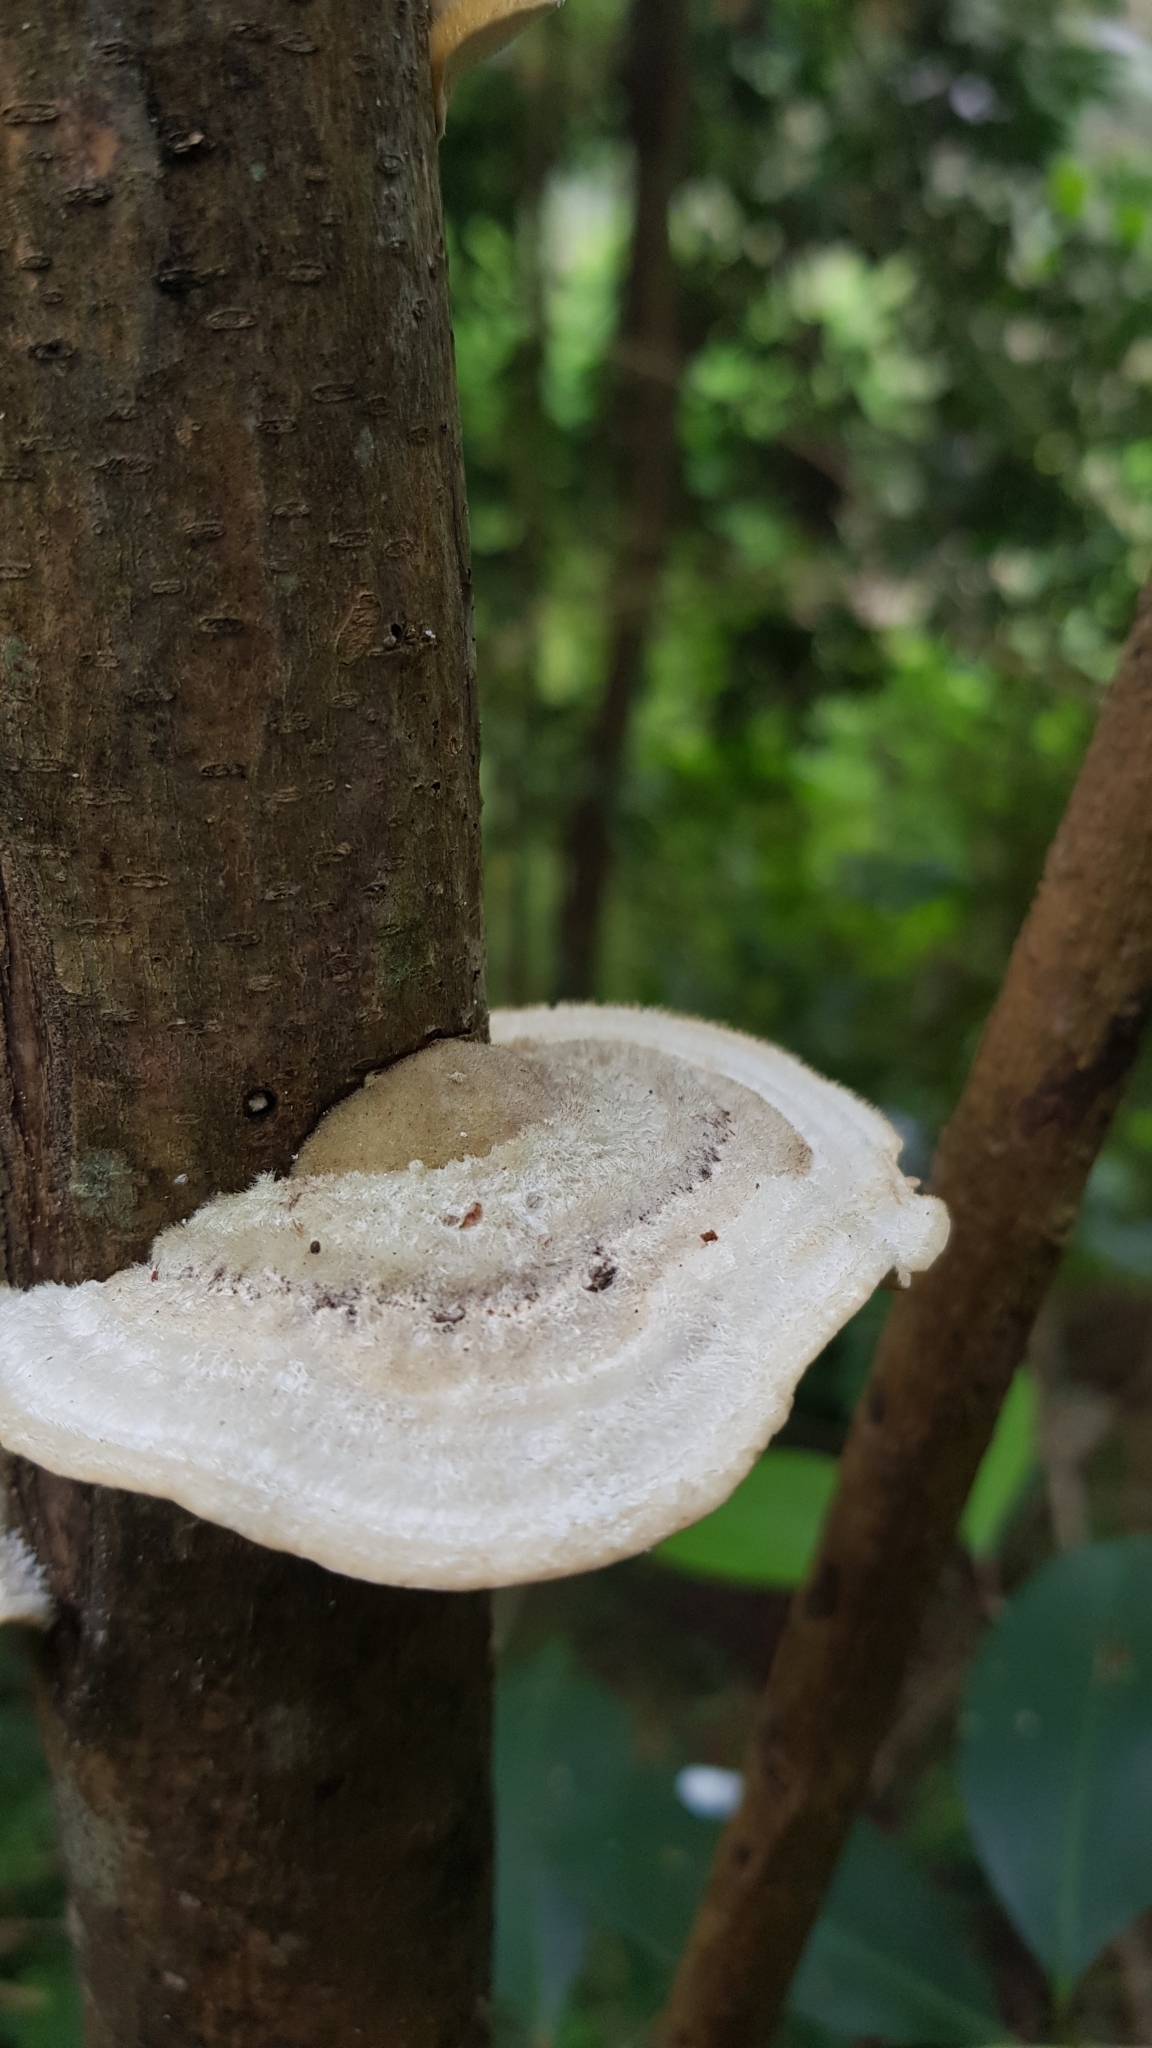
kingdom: Fungi
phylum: Basidiomycota
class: Agaricomycetes
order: Polyporales
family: Polyporaceae
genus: Trametes
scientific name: Trametes hirsuta
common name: Hairy bracket
